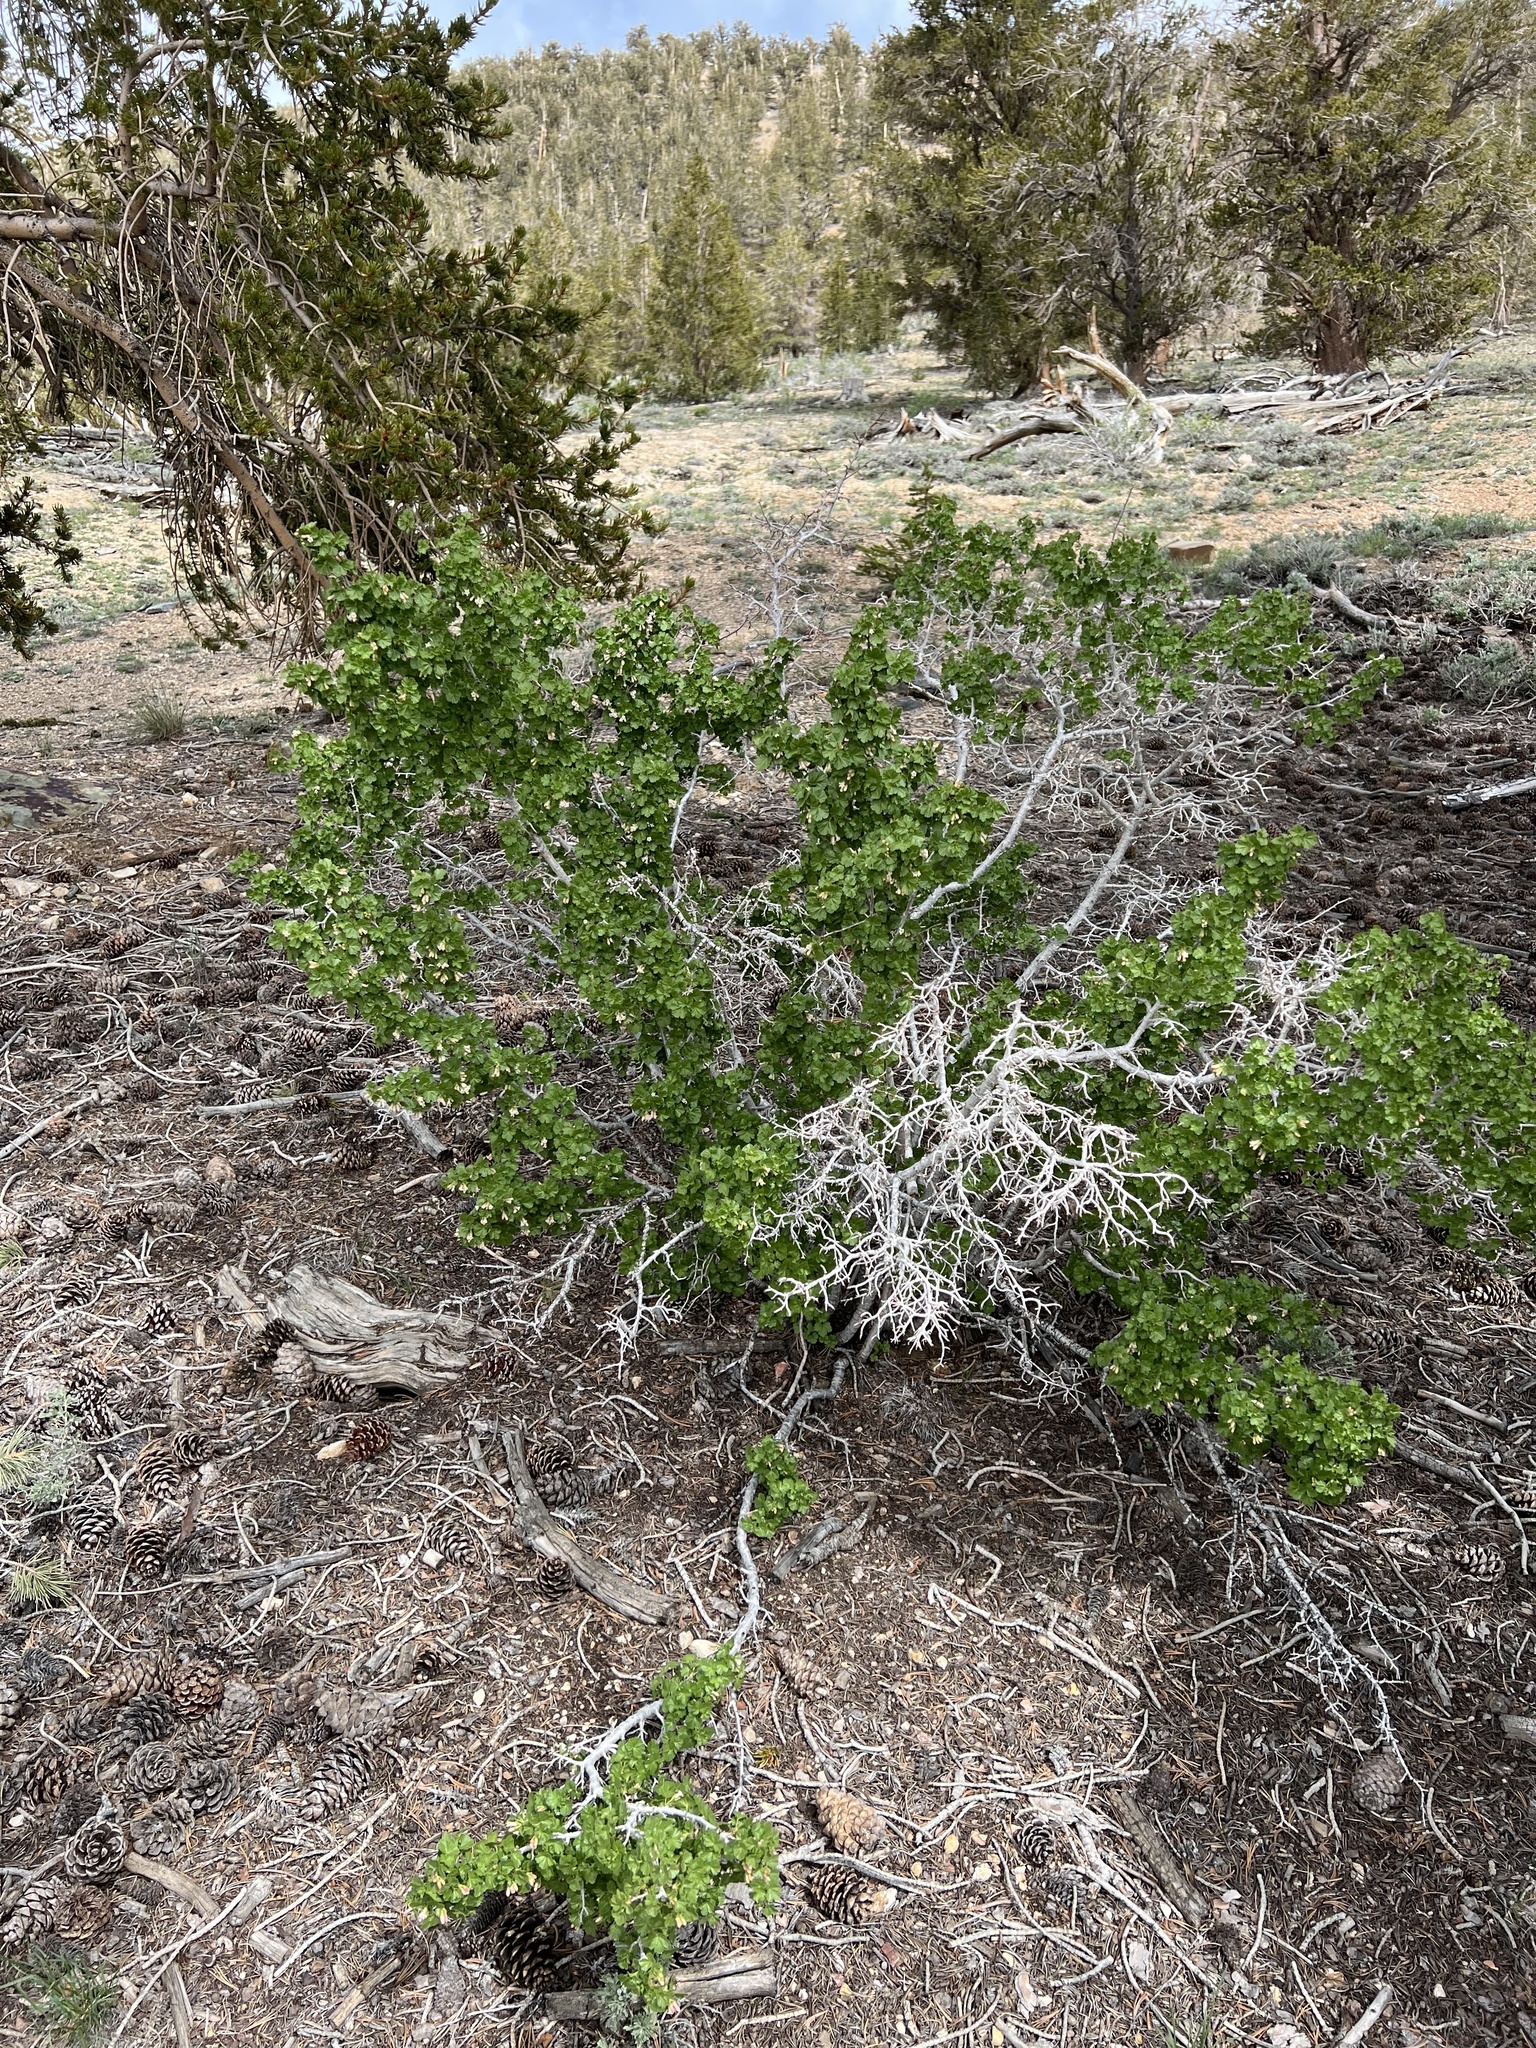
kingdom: Plantae
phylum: Tracheophyta
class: Magnoliopsida
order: Saxifragales
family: Grossulariaceae
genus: Ribes
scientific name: Ribes cereum
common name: Wax currant
